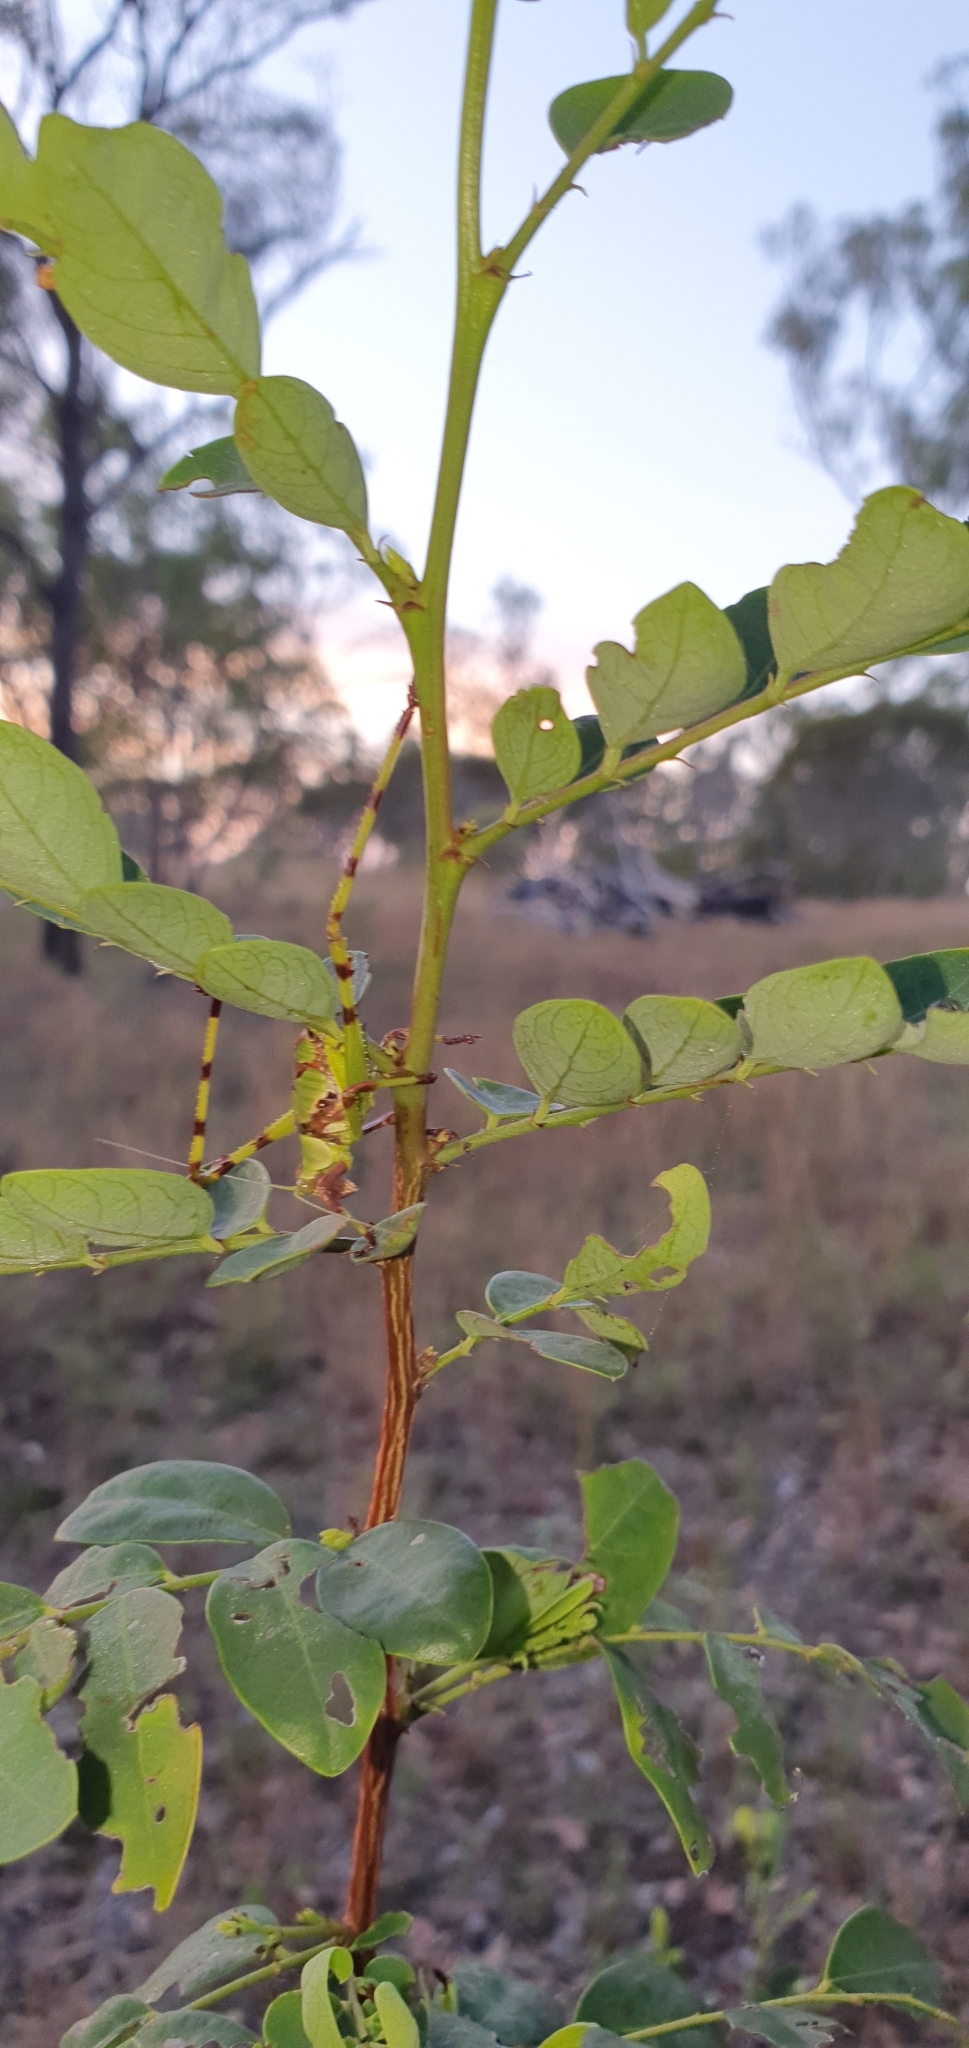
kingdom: Animalia
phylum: Arthropoda
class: Insecta
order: Orthoptera
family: Tettigoniidae
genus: Ephippitytha
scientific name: Ephippitytha trigintiduoguttata
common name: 32-spotted katydid
